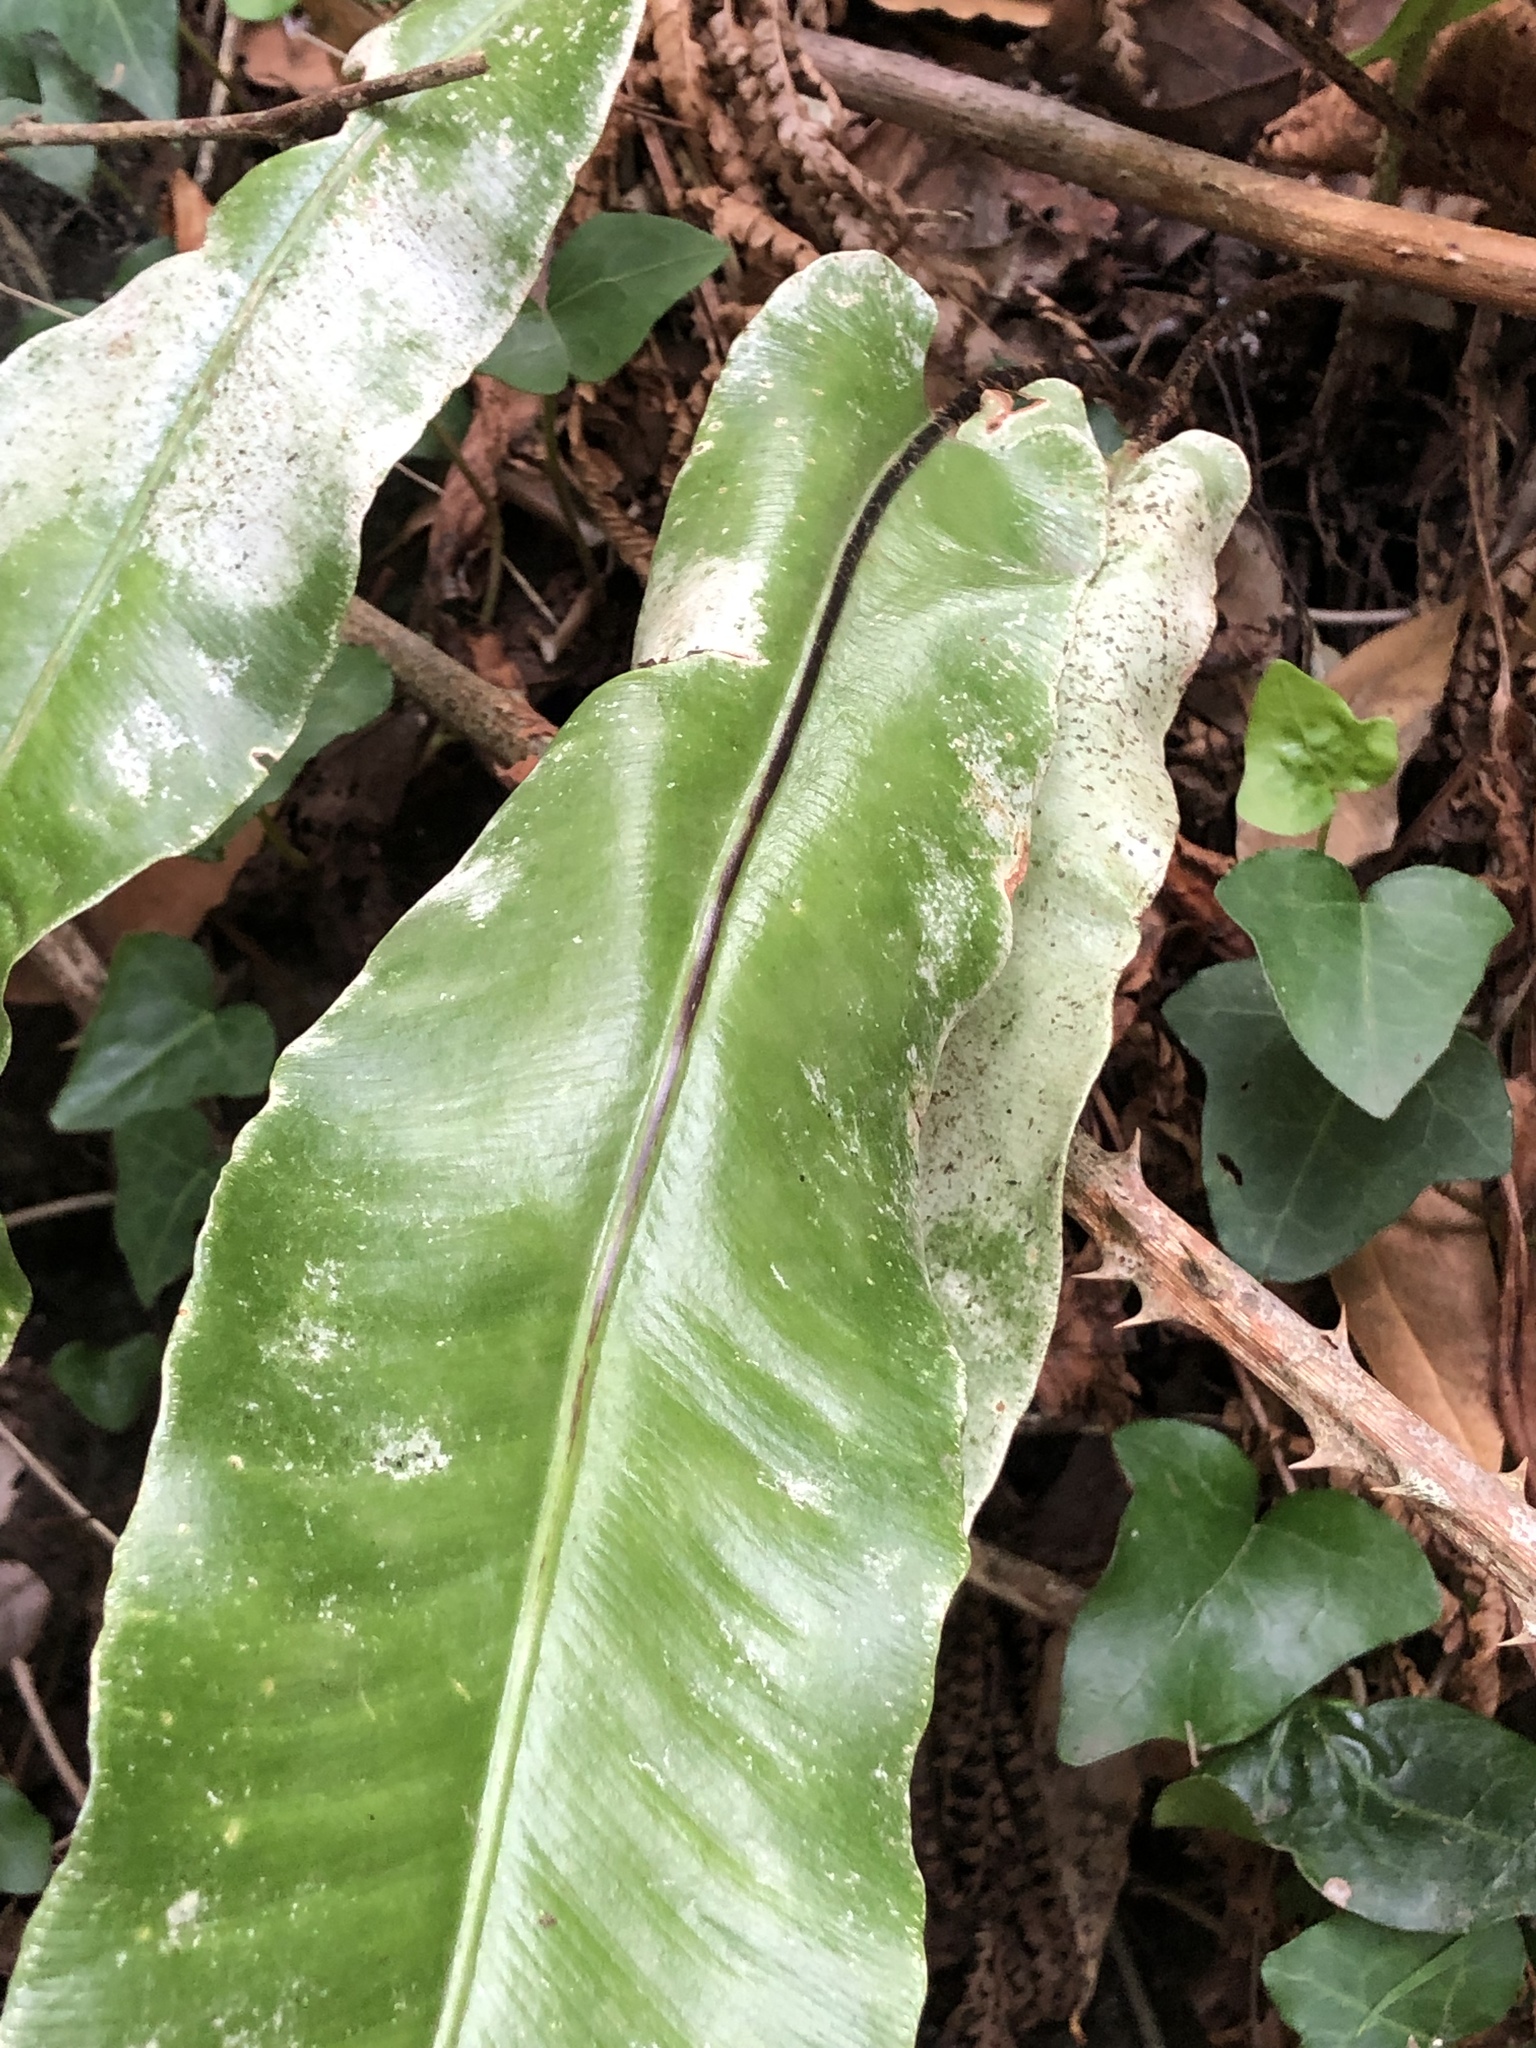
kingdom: Plantae
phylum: Tracheophyta
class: Polypodiopsida
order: Polypodiales
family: Aspleniaceae
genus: Asplenium
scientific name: Asplenium scolopendrium
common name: Hart's-tongue fern
